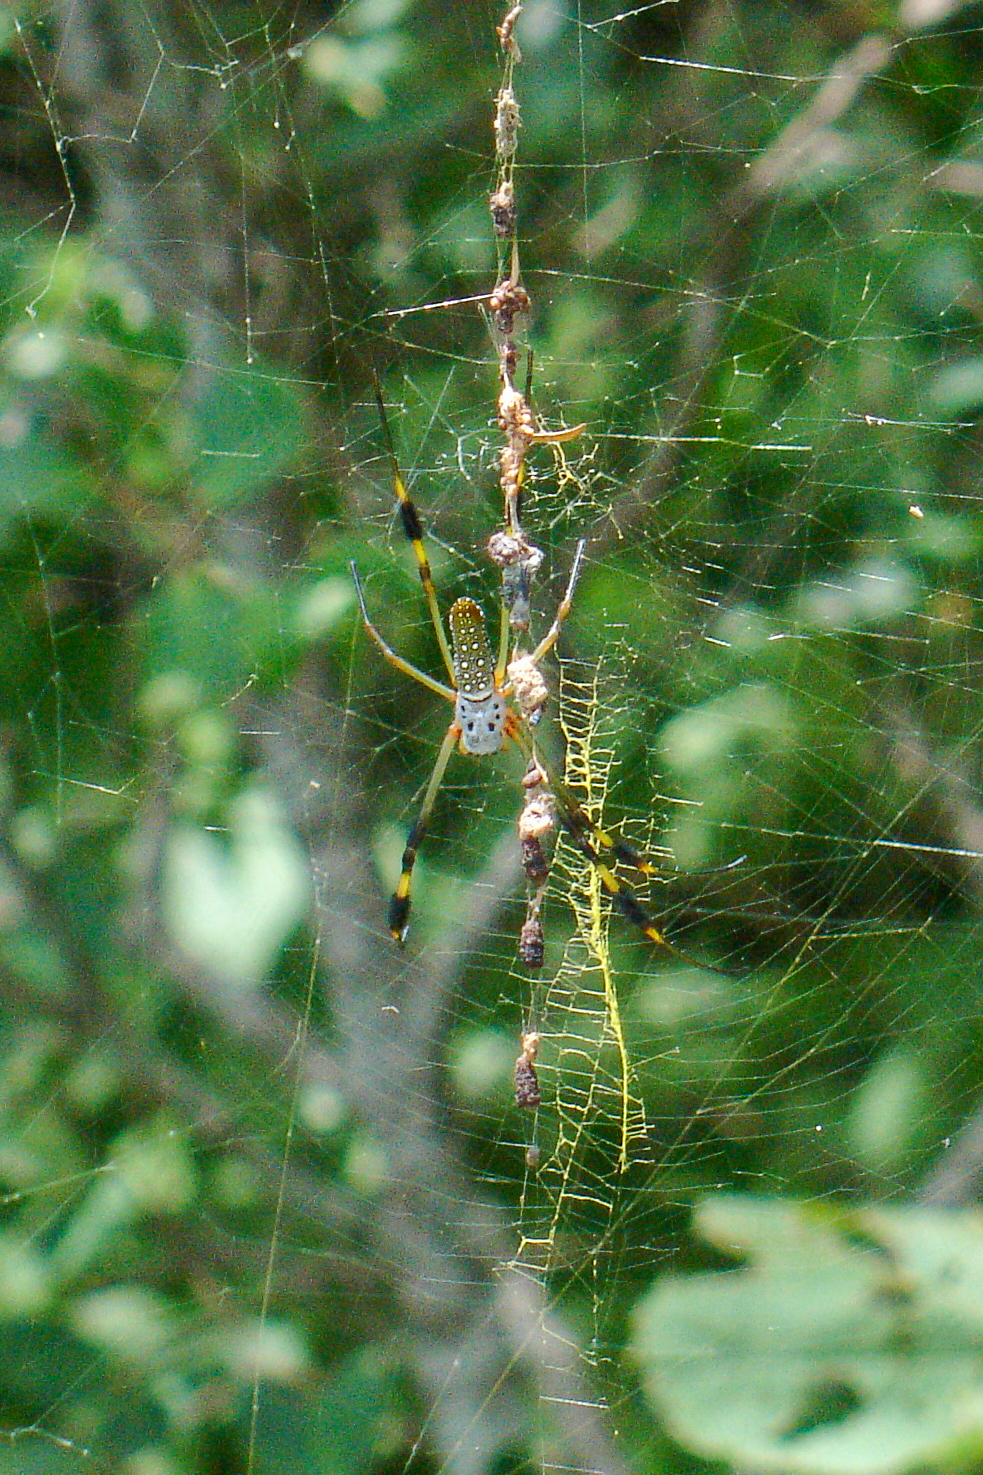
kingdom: Animalia
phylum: Arthropoda
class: Arachnida
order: Araneae
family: Araneidae
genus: Trichonephila
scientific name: Trichonephila clavipes
